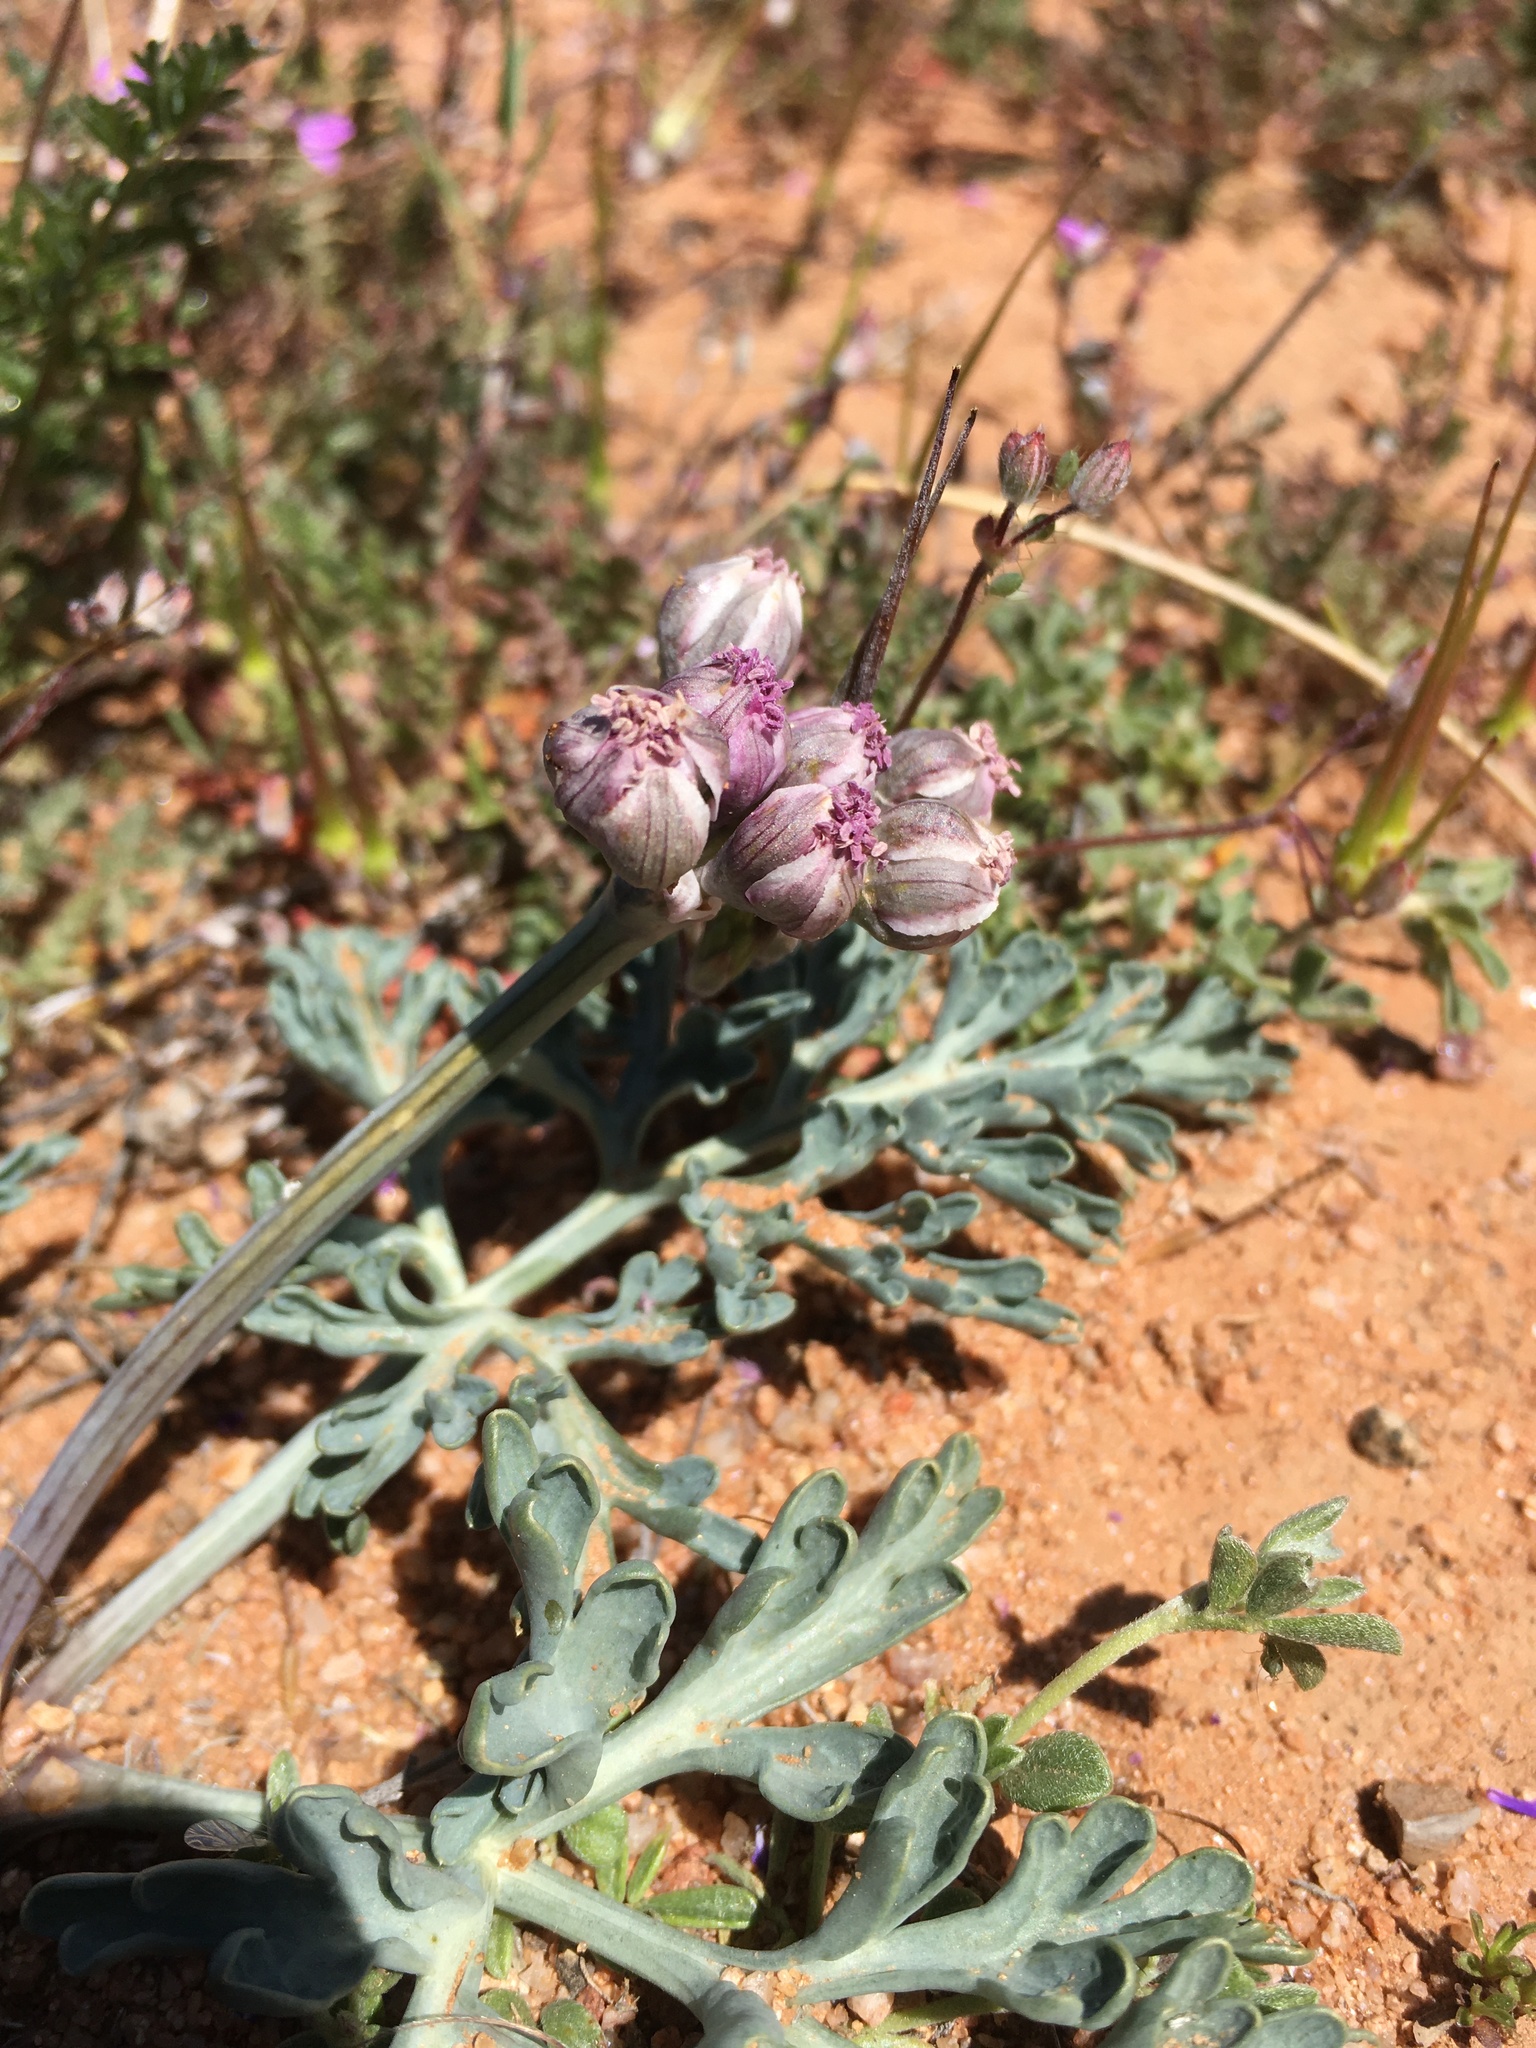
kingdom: Plantae
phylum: Tracheophyta
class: Magnoliopsida
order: Apiales
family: Apiaceae
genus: Vesper
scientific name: Vesper multinervatus
